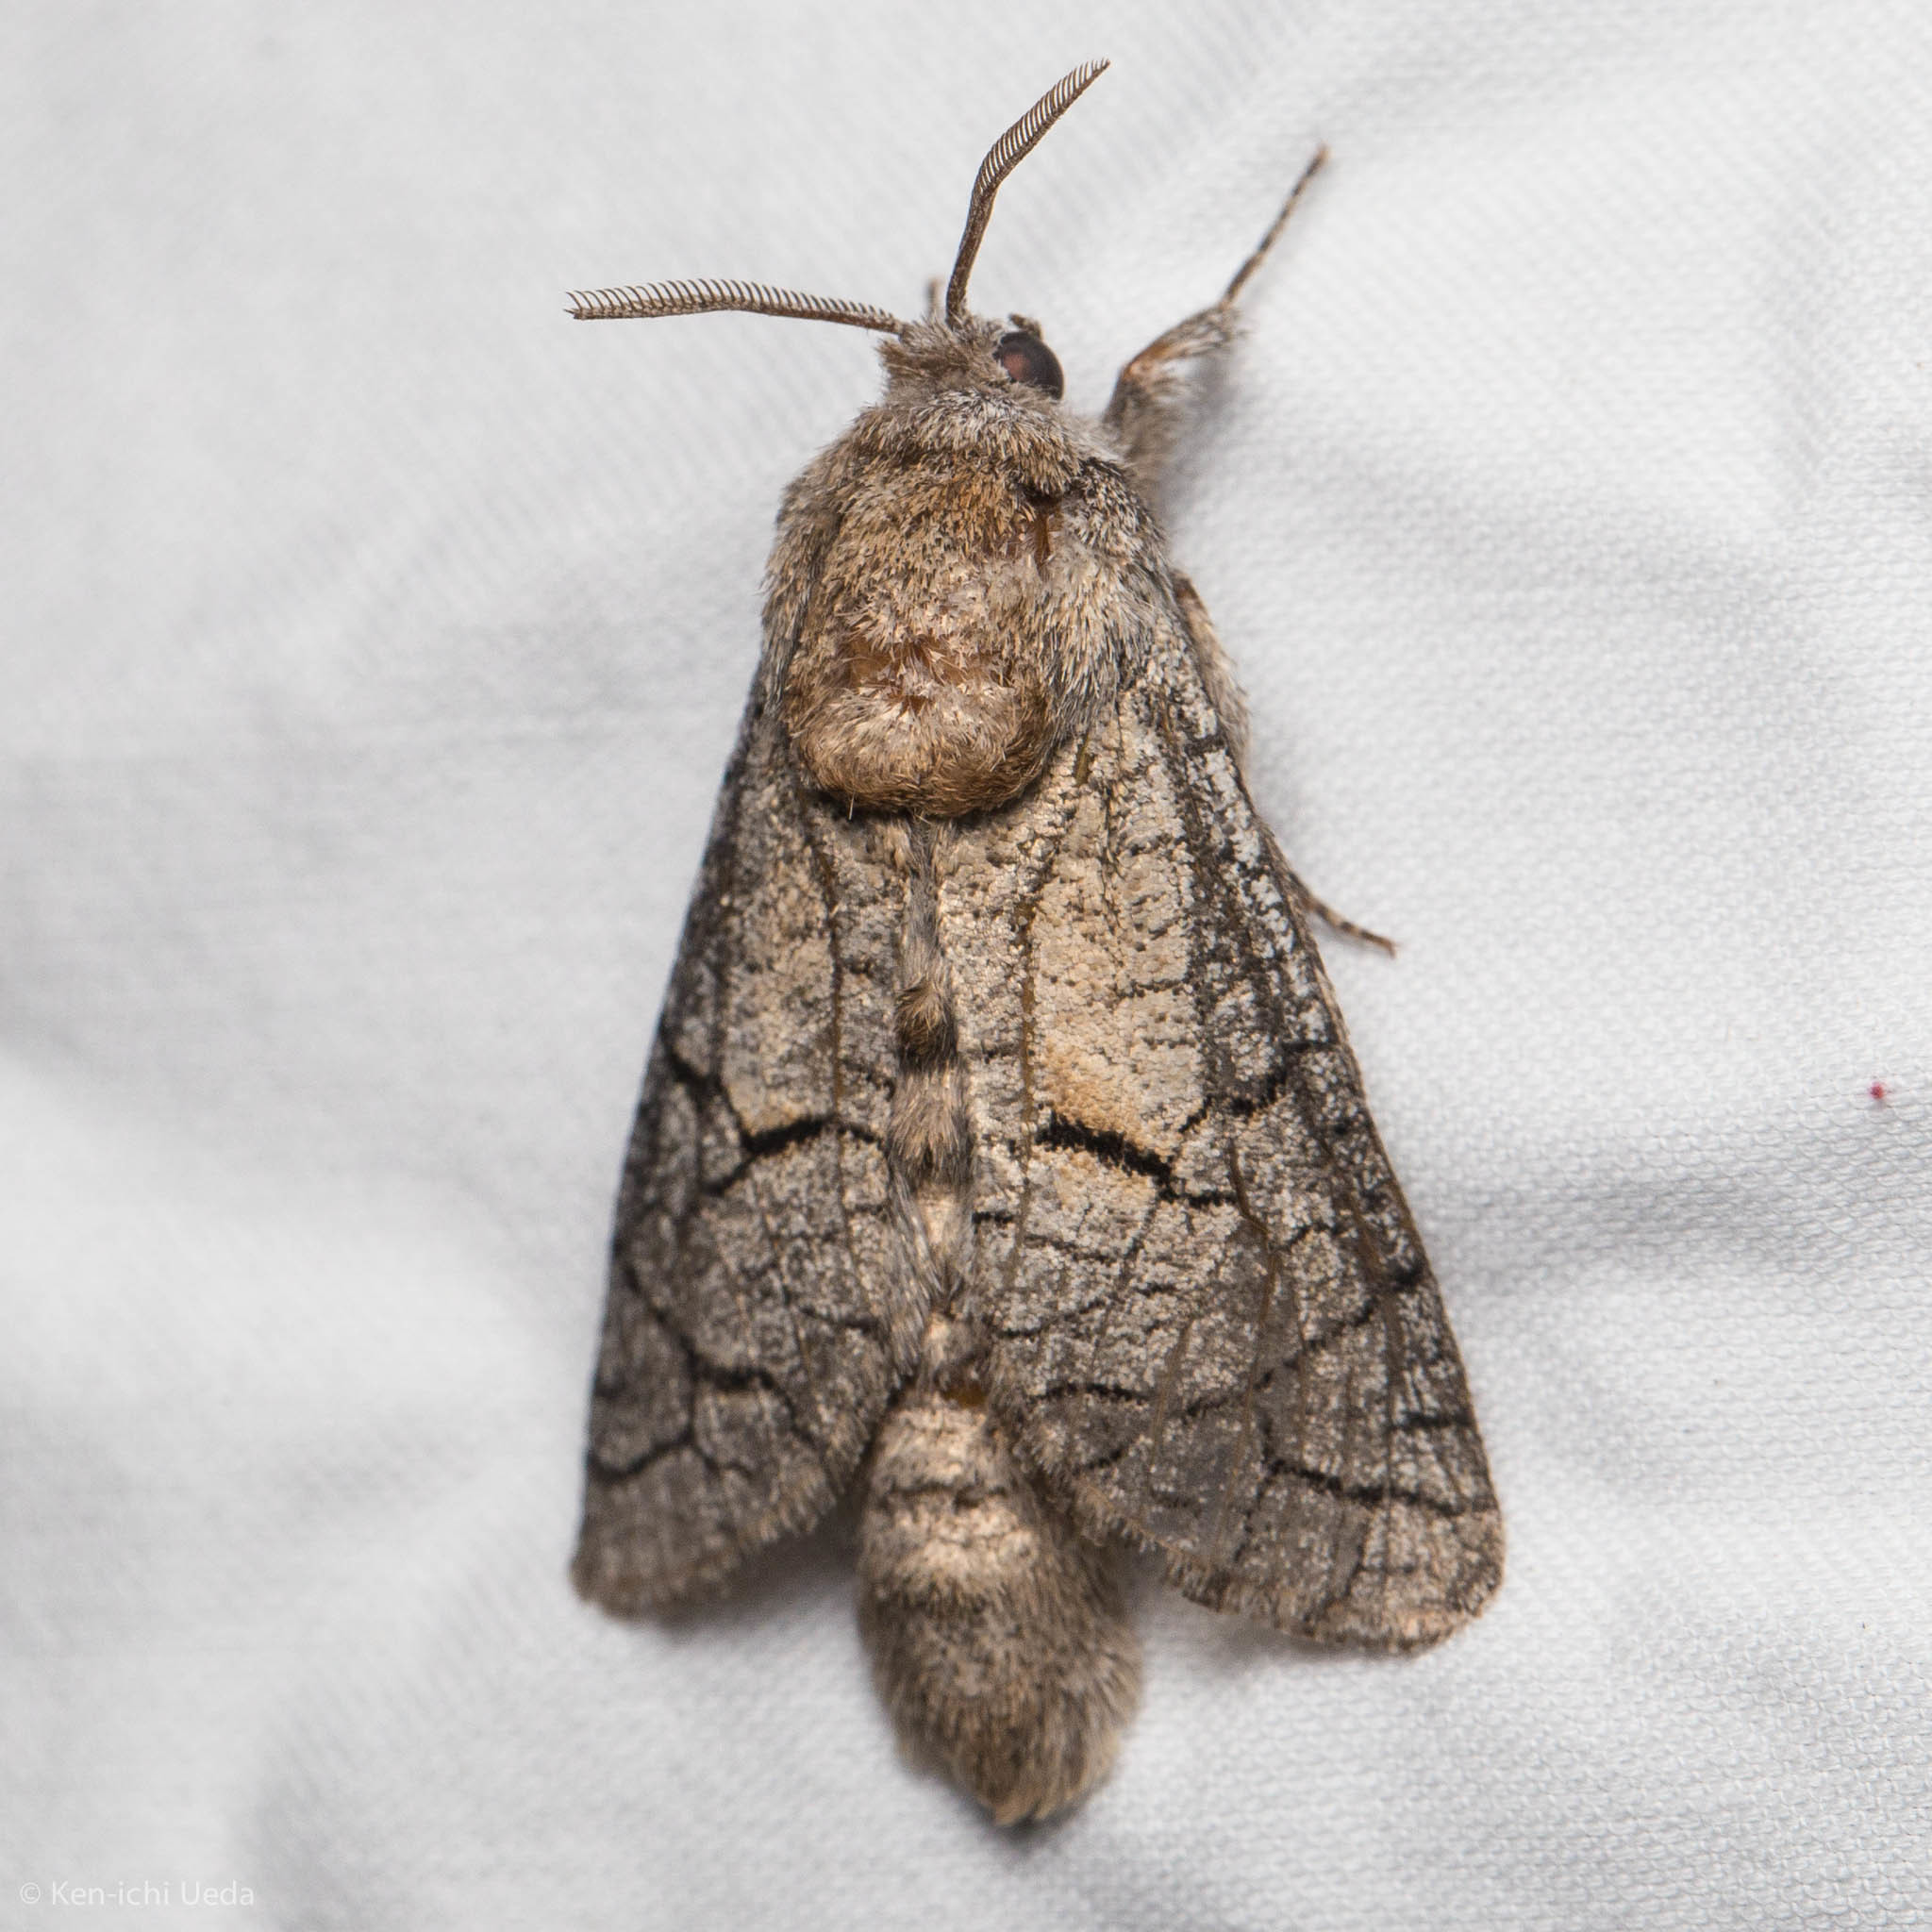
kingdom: Animalia
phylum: Arthropoda
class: Insecta
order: Lepidoptera
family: Cossidae
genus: Toronia
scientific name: Toronia
